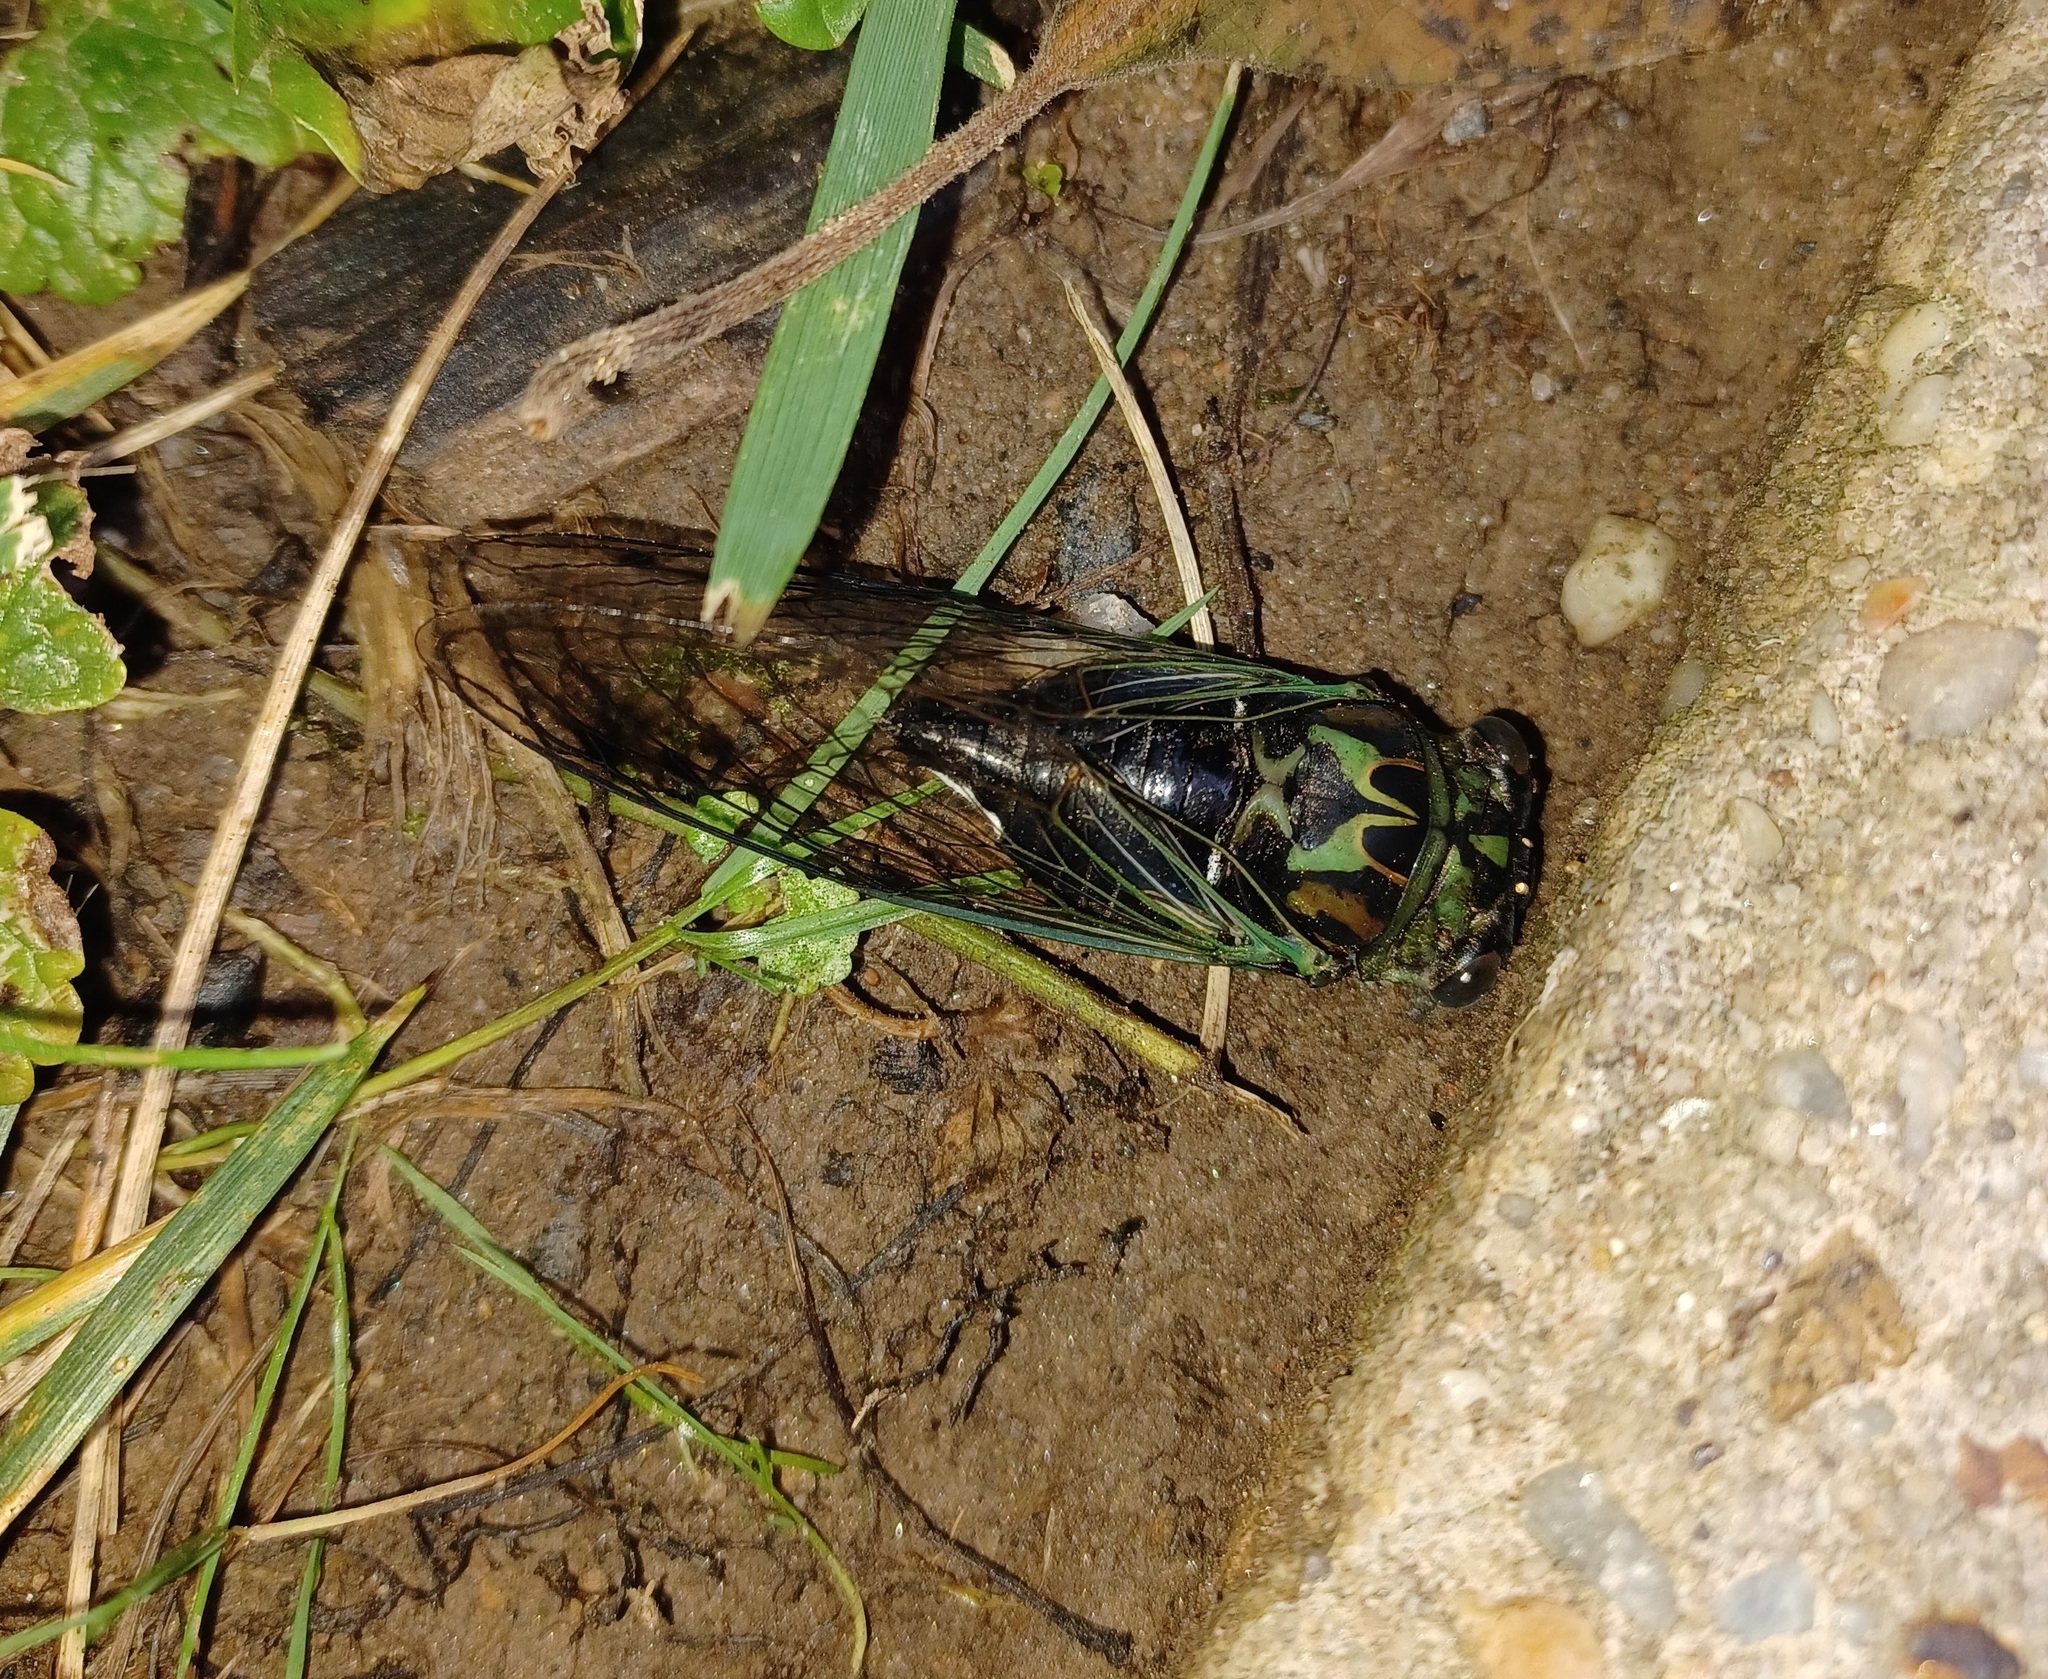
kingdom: Animalia
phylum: Arthropoda
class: Insecta
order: Hemiptera
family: Cicadidae
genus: Neotibicen
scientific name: Neotibicen robinsonianus
